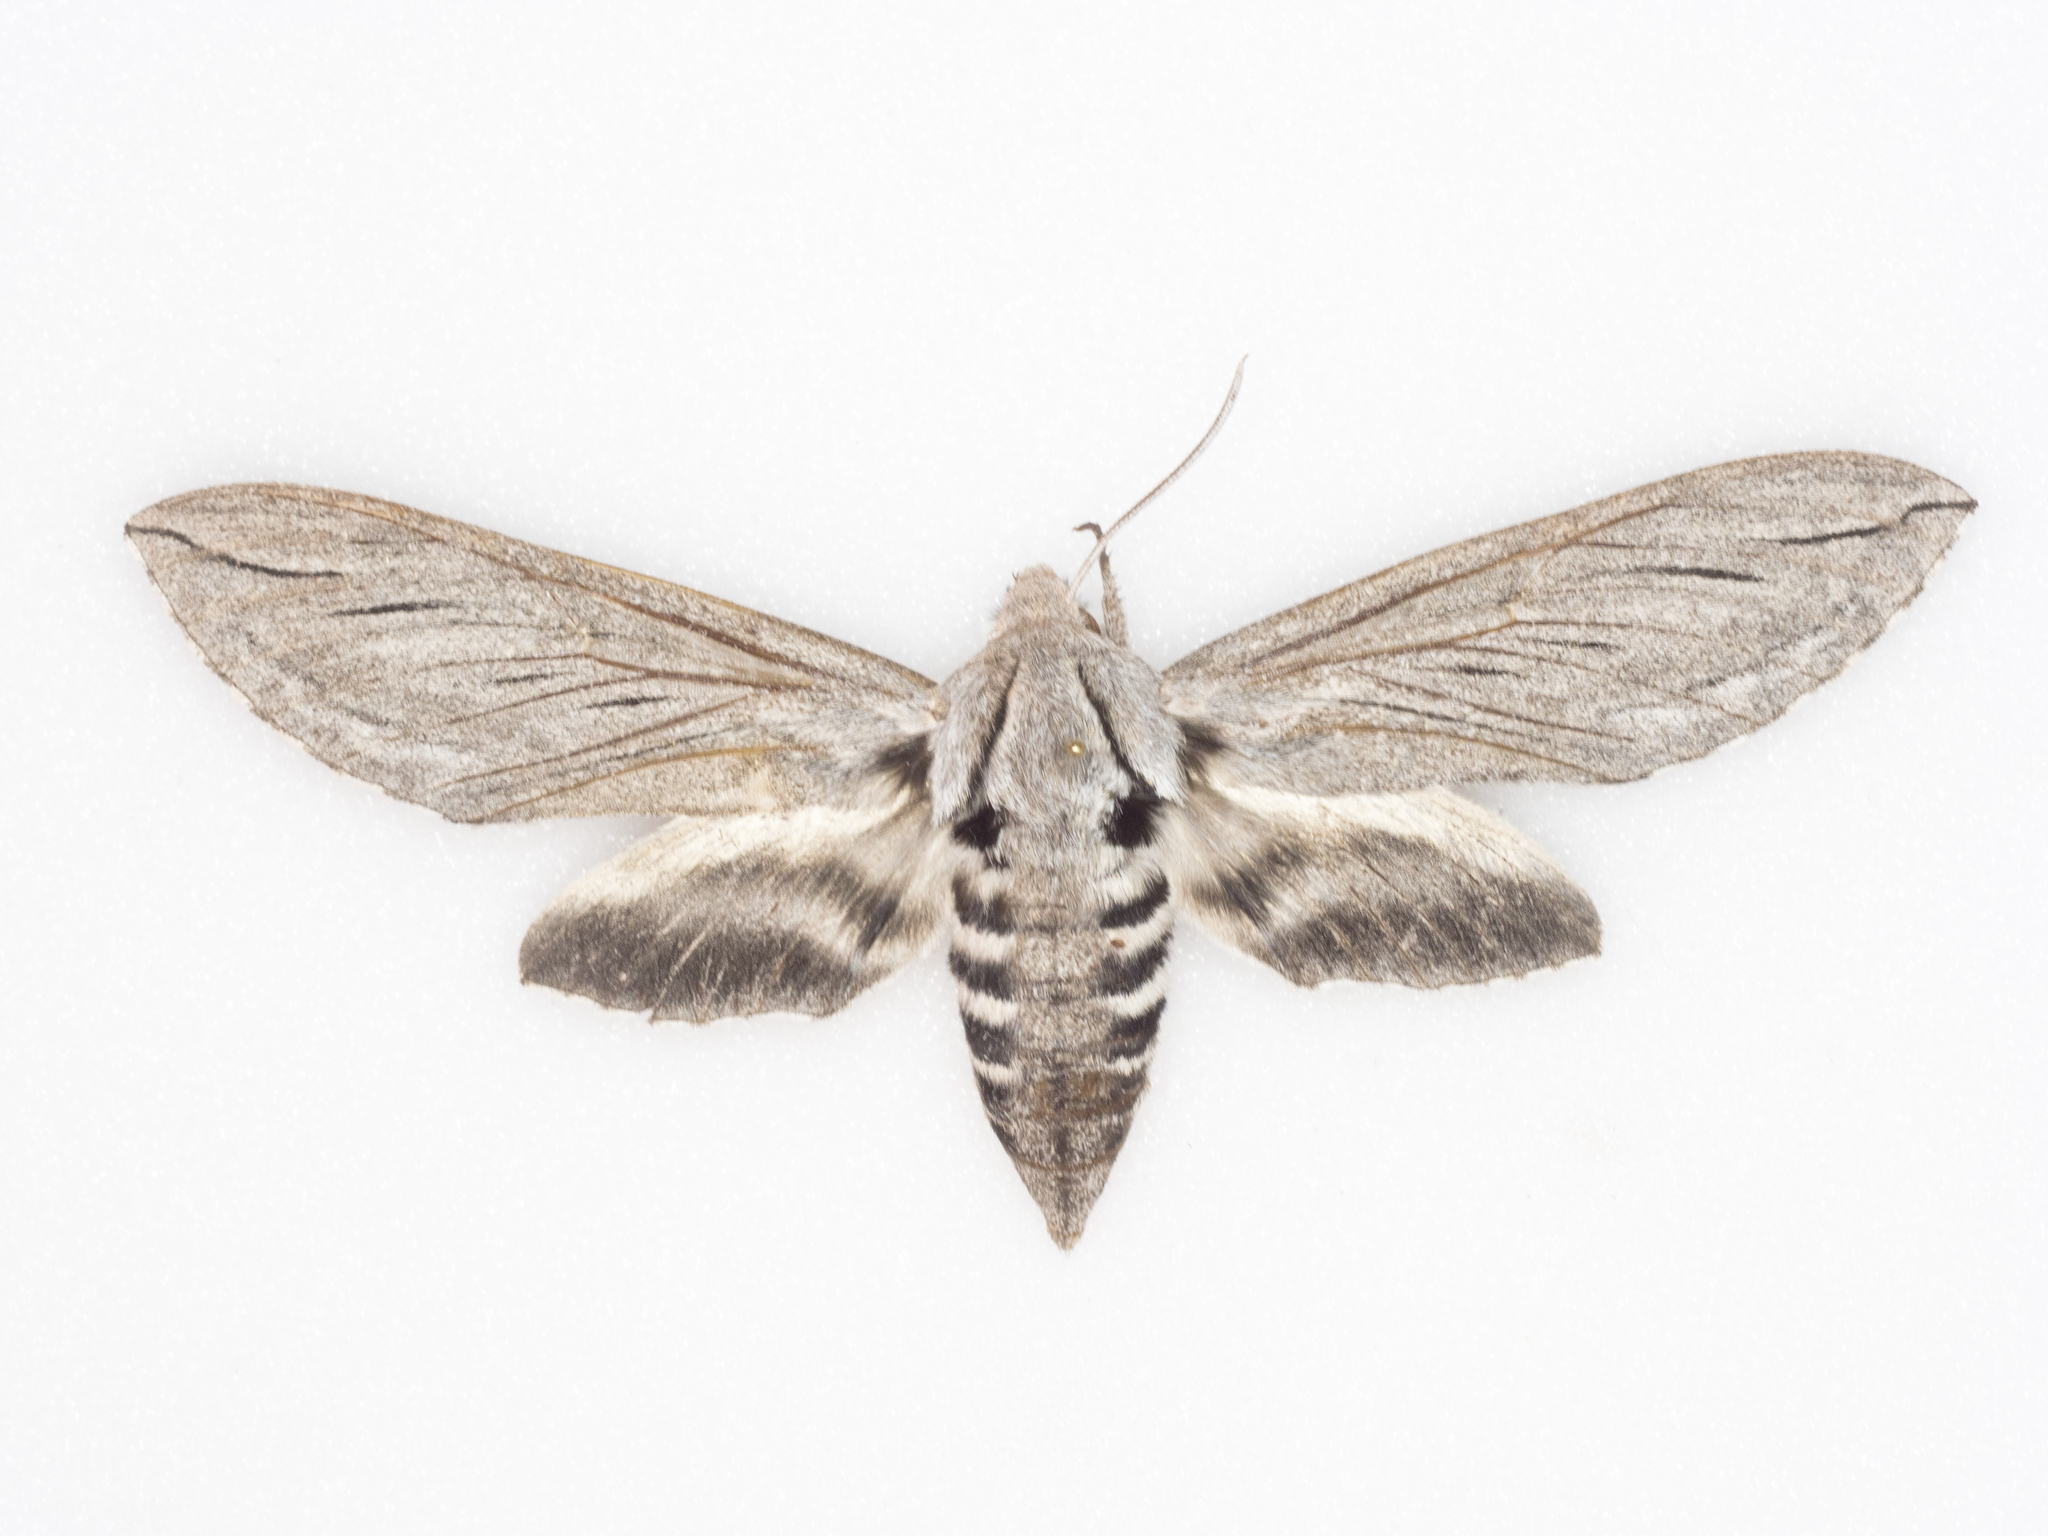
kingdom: Animalia
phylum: Arthropoda
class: Insecta
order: Lepidoptera
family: Sphingidae
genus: Sphinx
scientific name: Sphinx chersis
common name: Great ash sphinx
